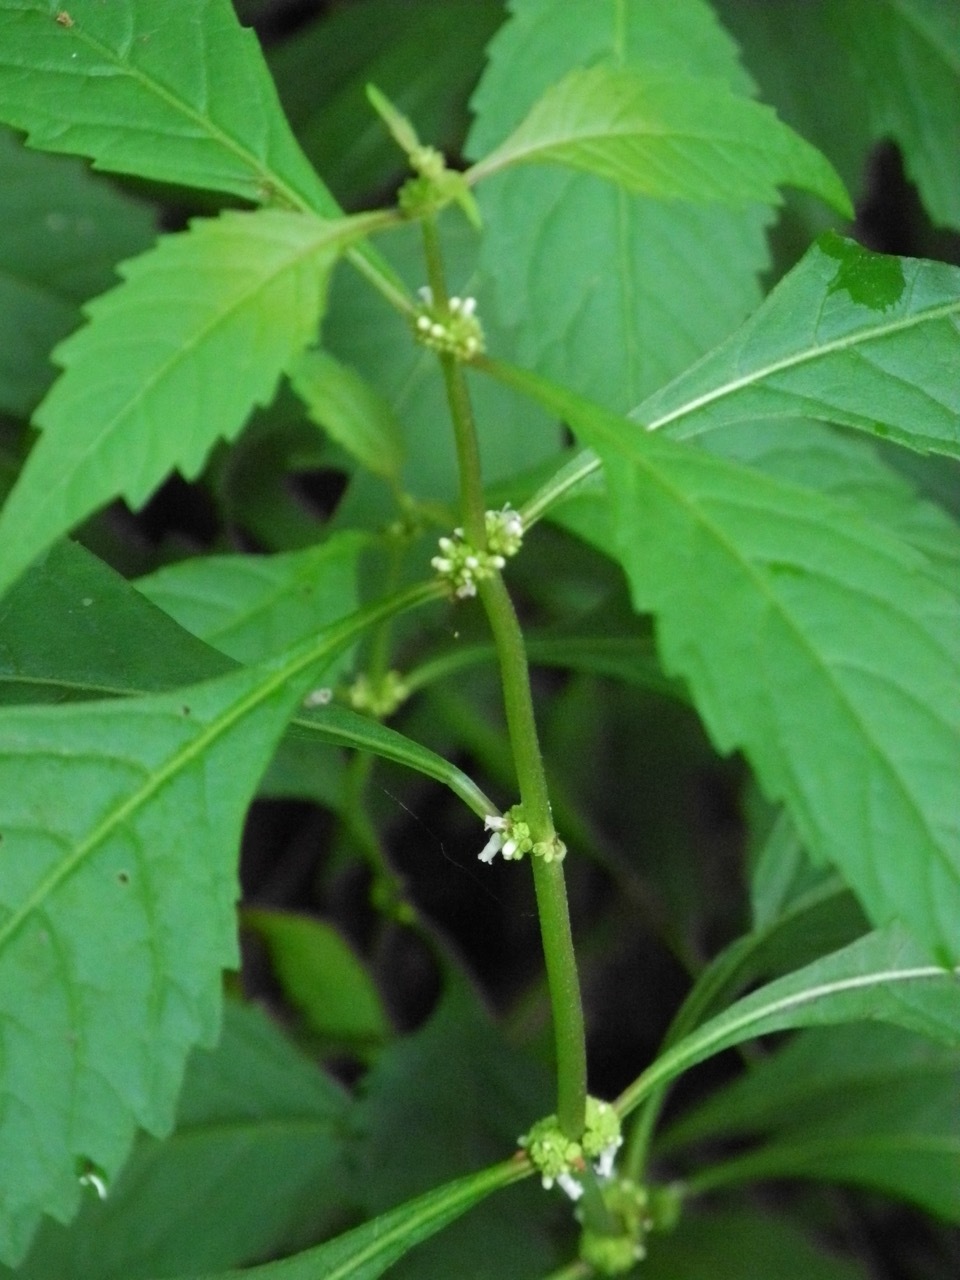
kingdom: Plantae
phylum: Tracheophyta
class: Magnoliopsida
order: Lamiales
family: Lamiaceae
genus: Lycopus
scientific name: Lycopus uniflorus
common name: Northern bugleweed
